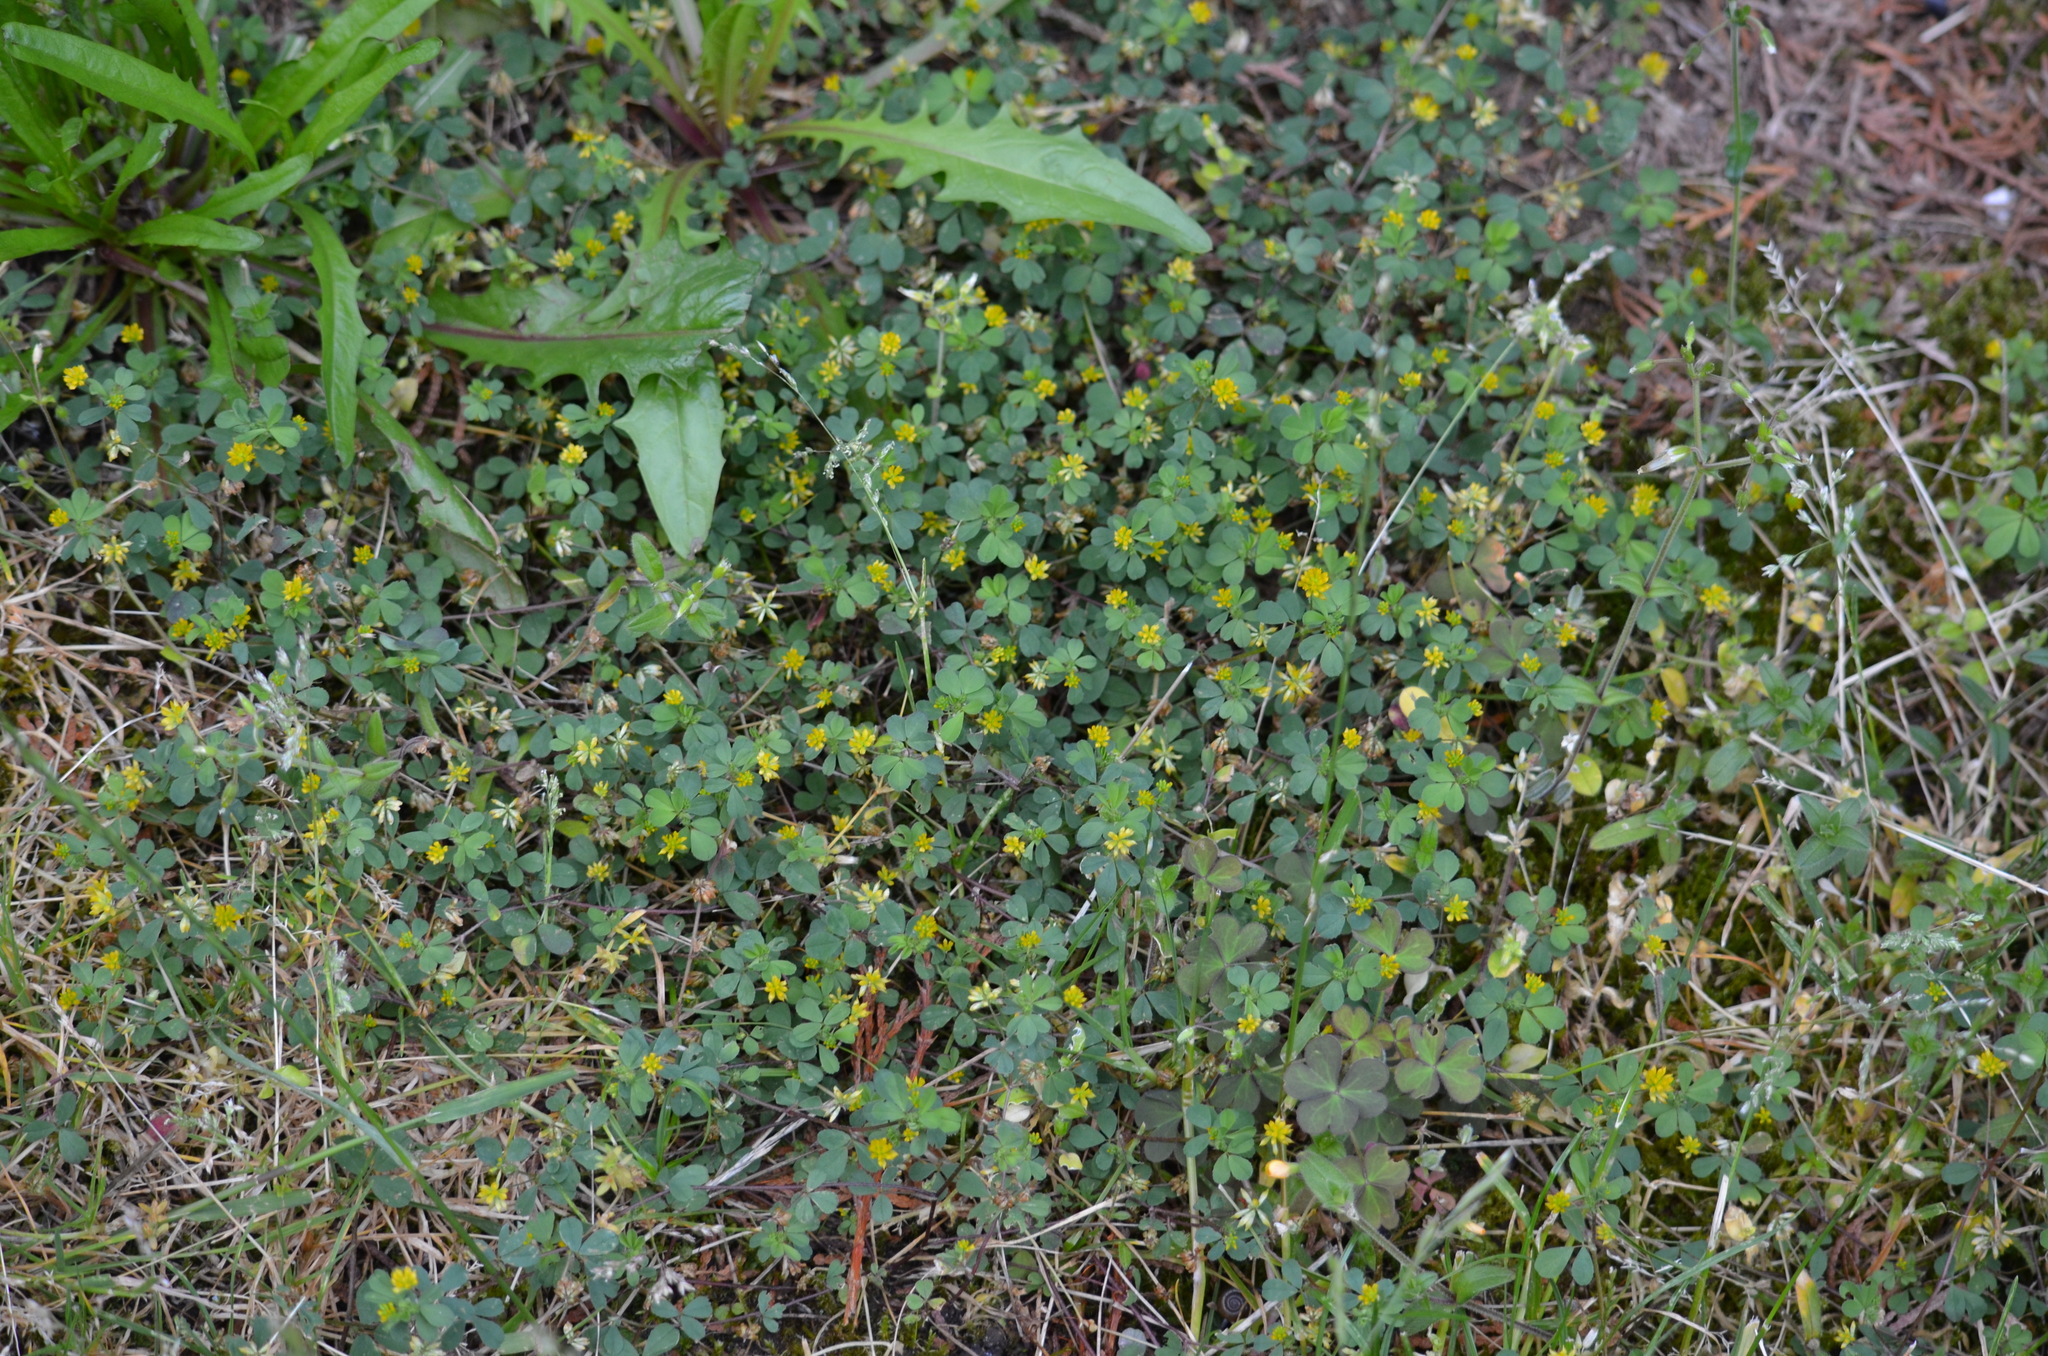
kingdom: Plantae
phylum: Tracheophyta
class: Magnoliopsida
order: Fabales
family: Fabaceae
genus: Trifolium
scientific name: Trifolium dubium
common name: Suckling clover
